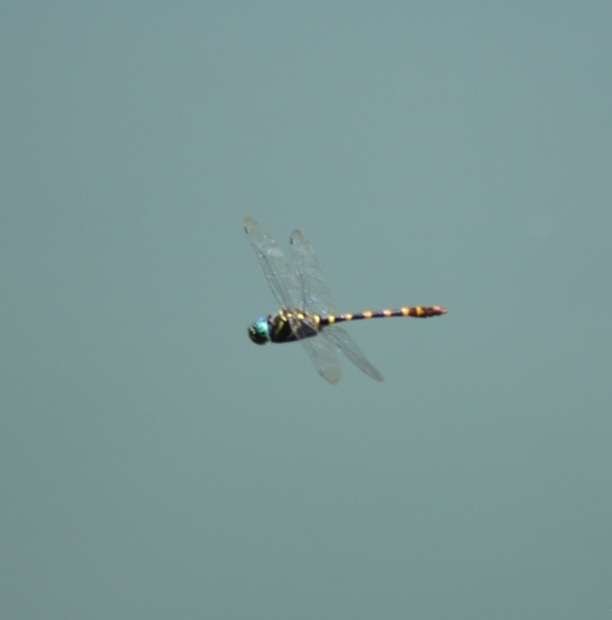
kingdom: Animalia
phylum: Arthropoda
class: Insecta
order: Odonata
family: Macromiidae
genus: Epophthalmia
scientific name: Epophthalmia vittata
